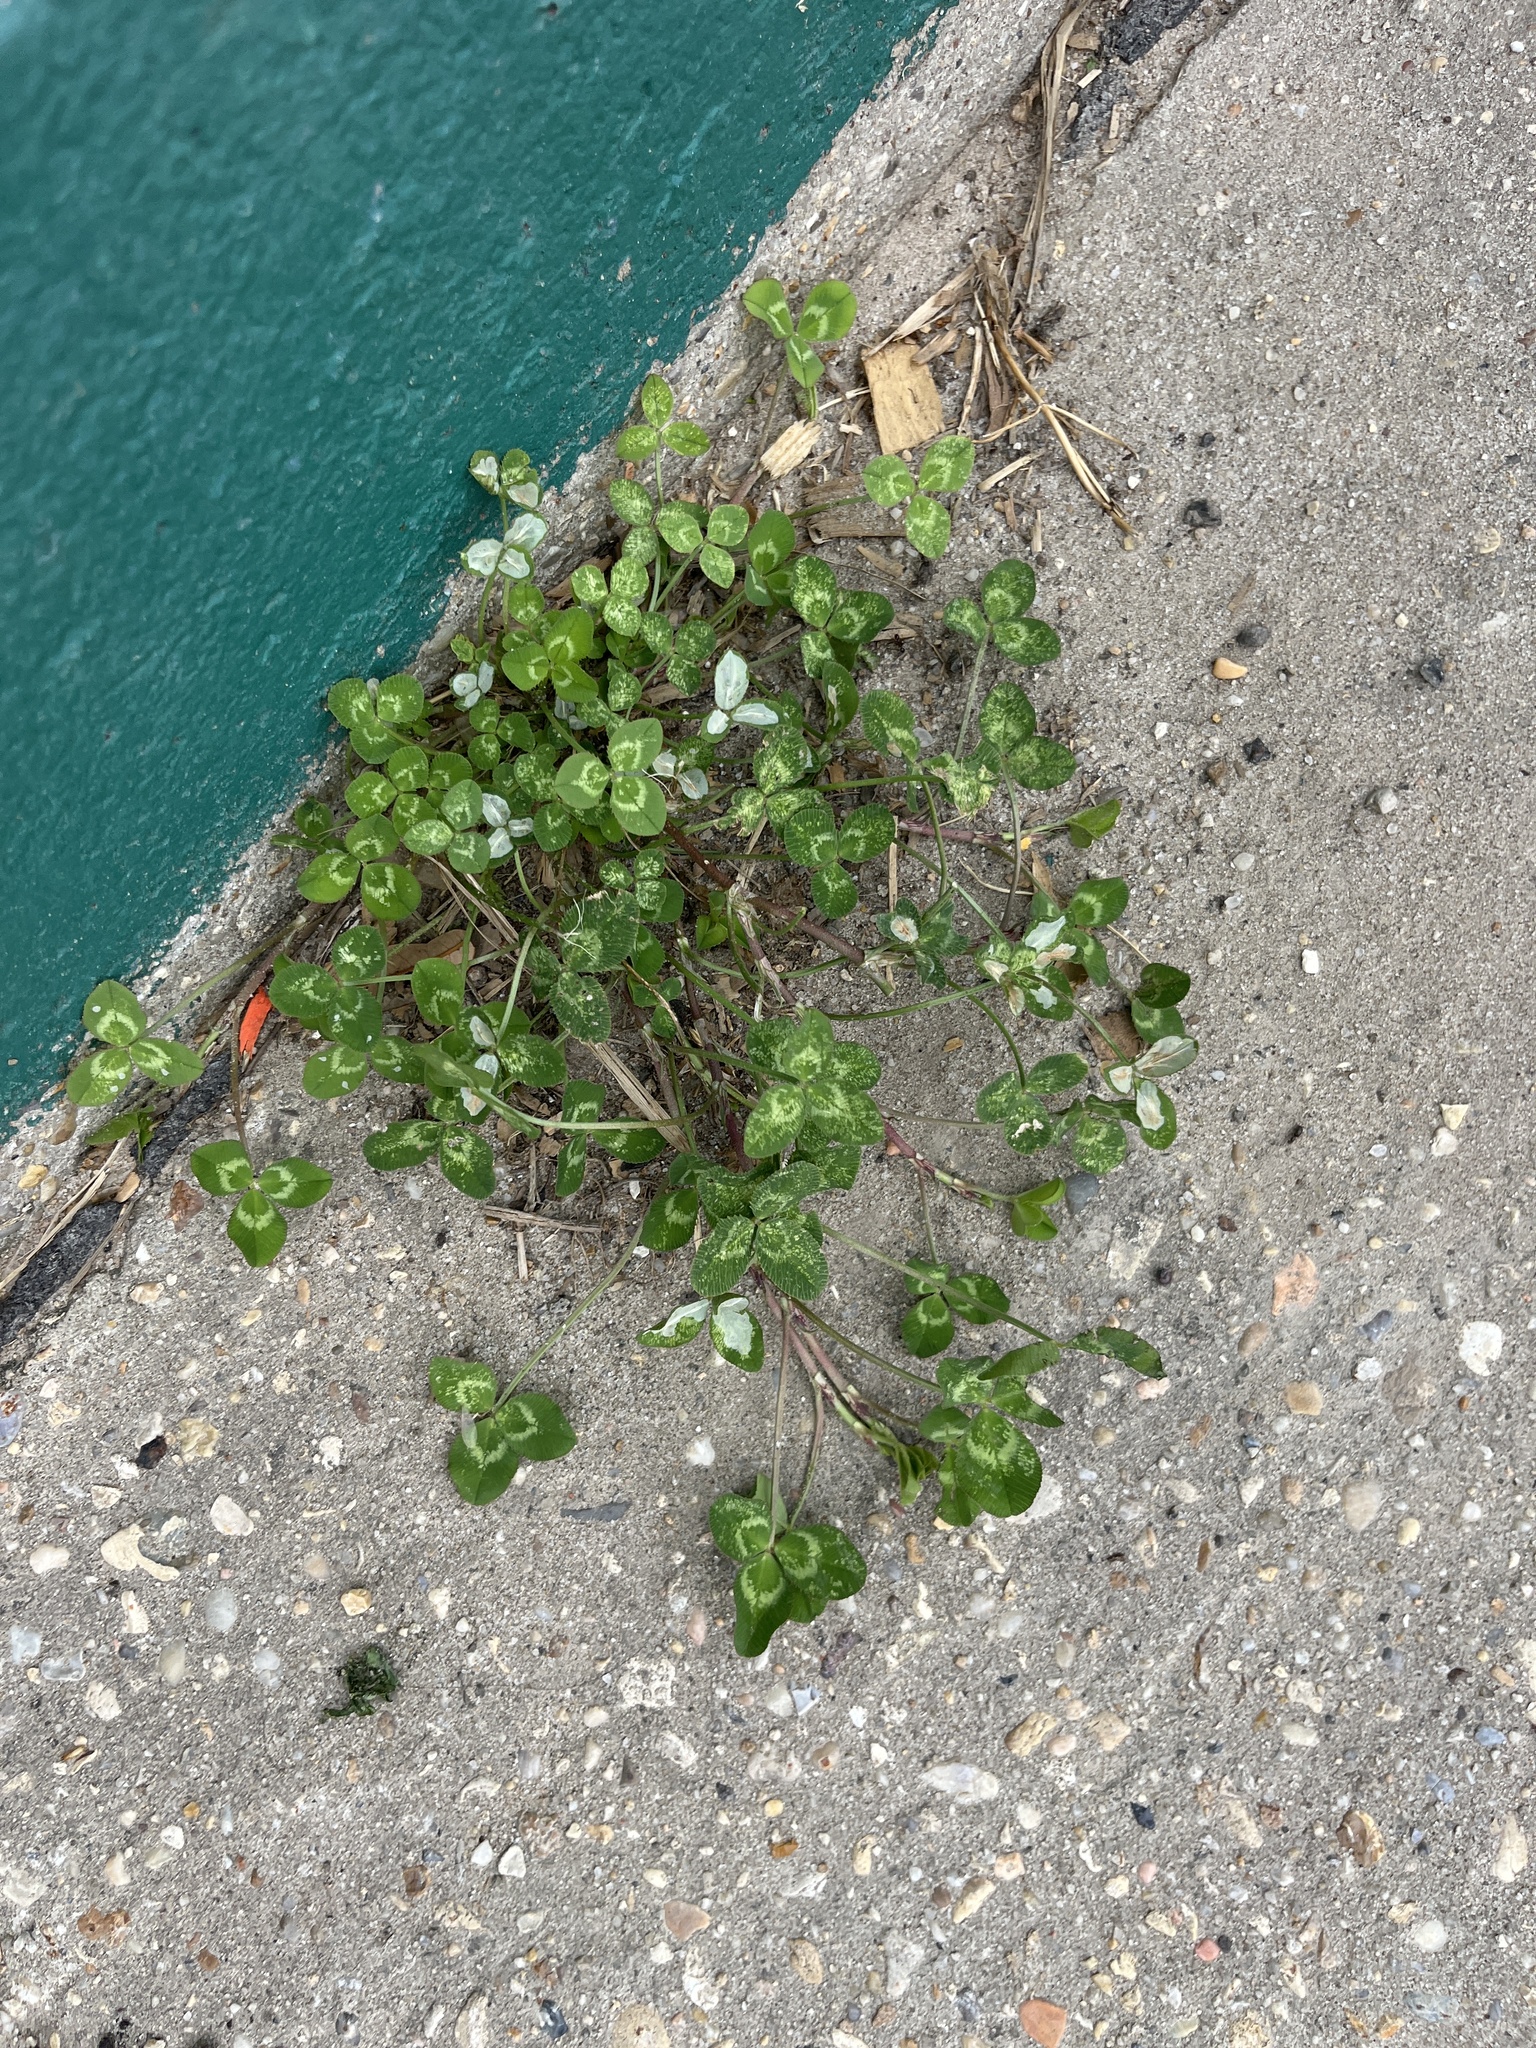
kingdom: Plantae
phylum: Tracheophyta
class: Magnoliopsida
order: Fabales
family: Fabaceae
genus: Trifolium
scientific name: Trifolium repens
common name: White clover
